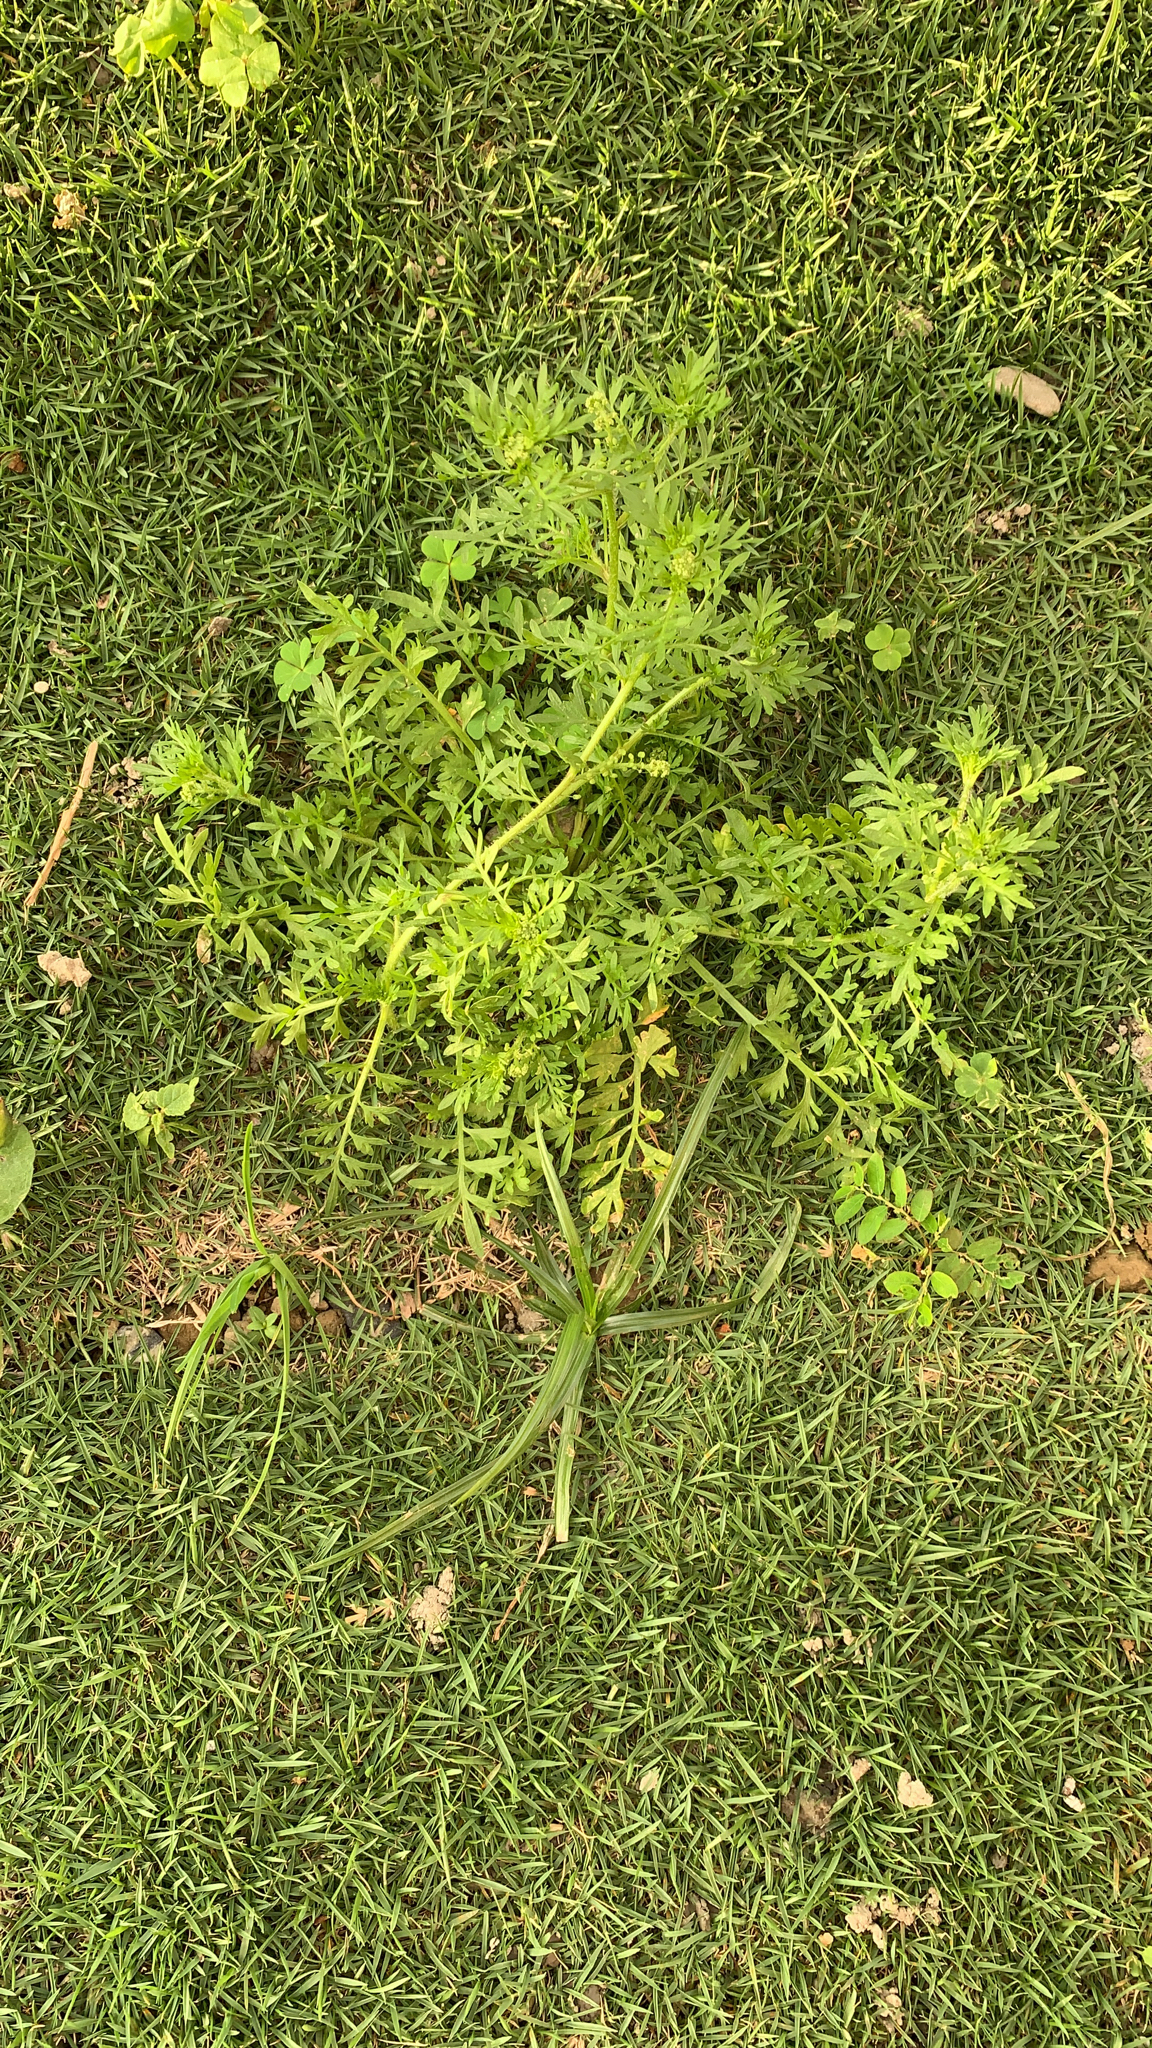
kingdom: Plantae
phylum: Tracheophyta
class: Magnoliopsida
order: Brassicales
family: Brassicaceae
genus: Lepidium
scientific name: Lepidium didymum
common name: Lesser swinecress
